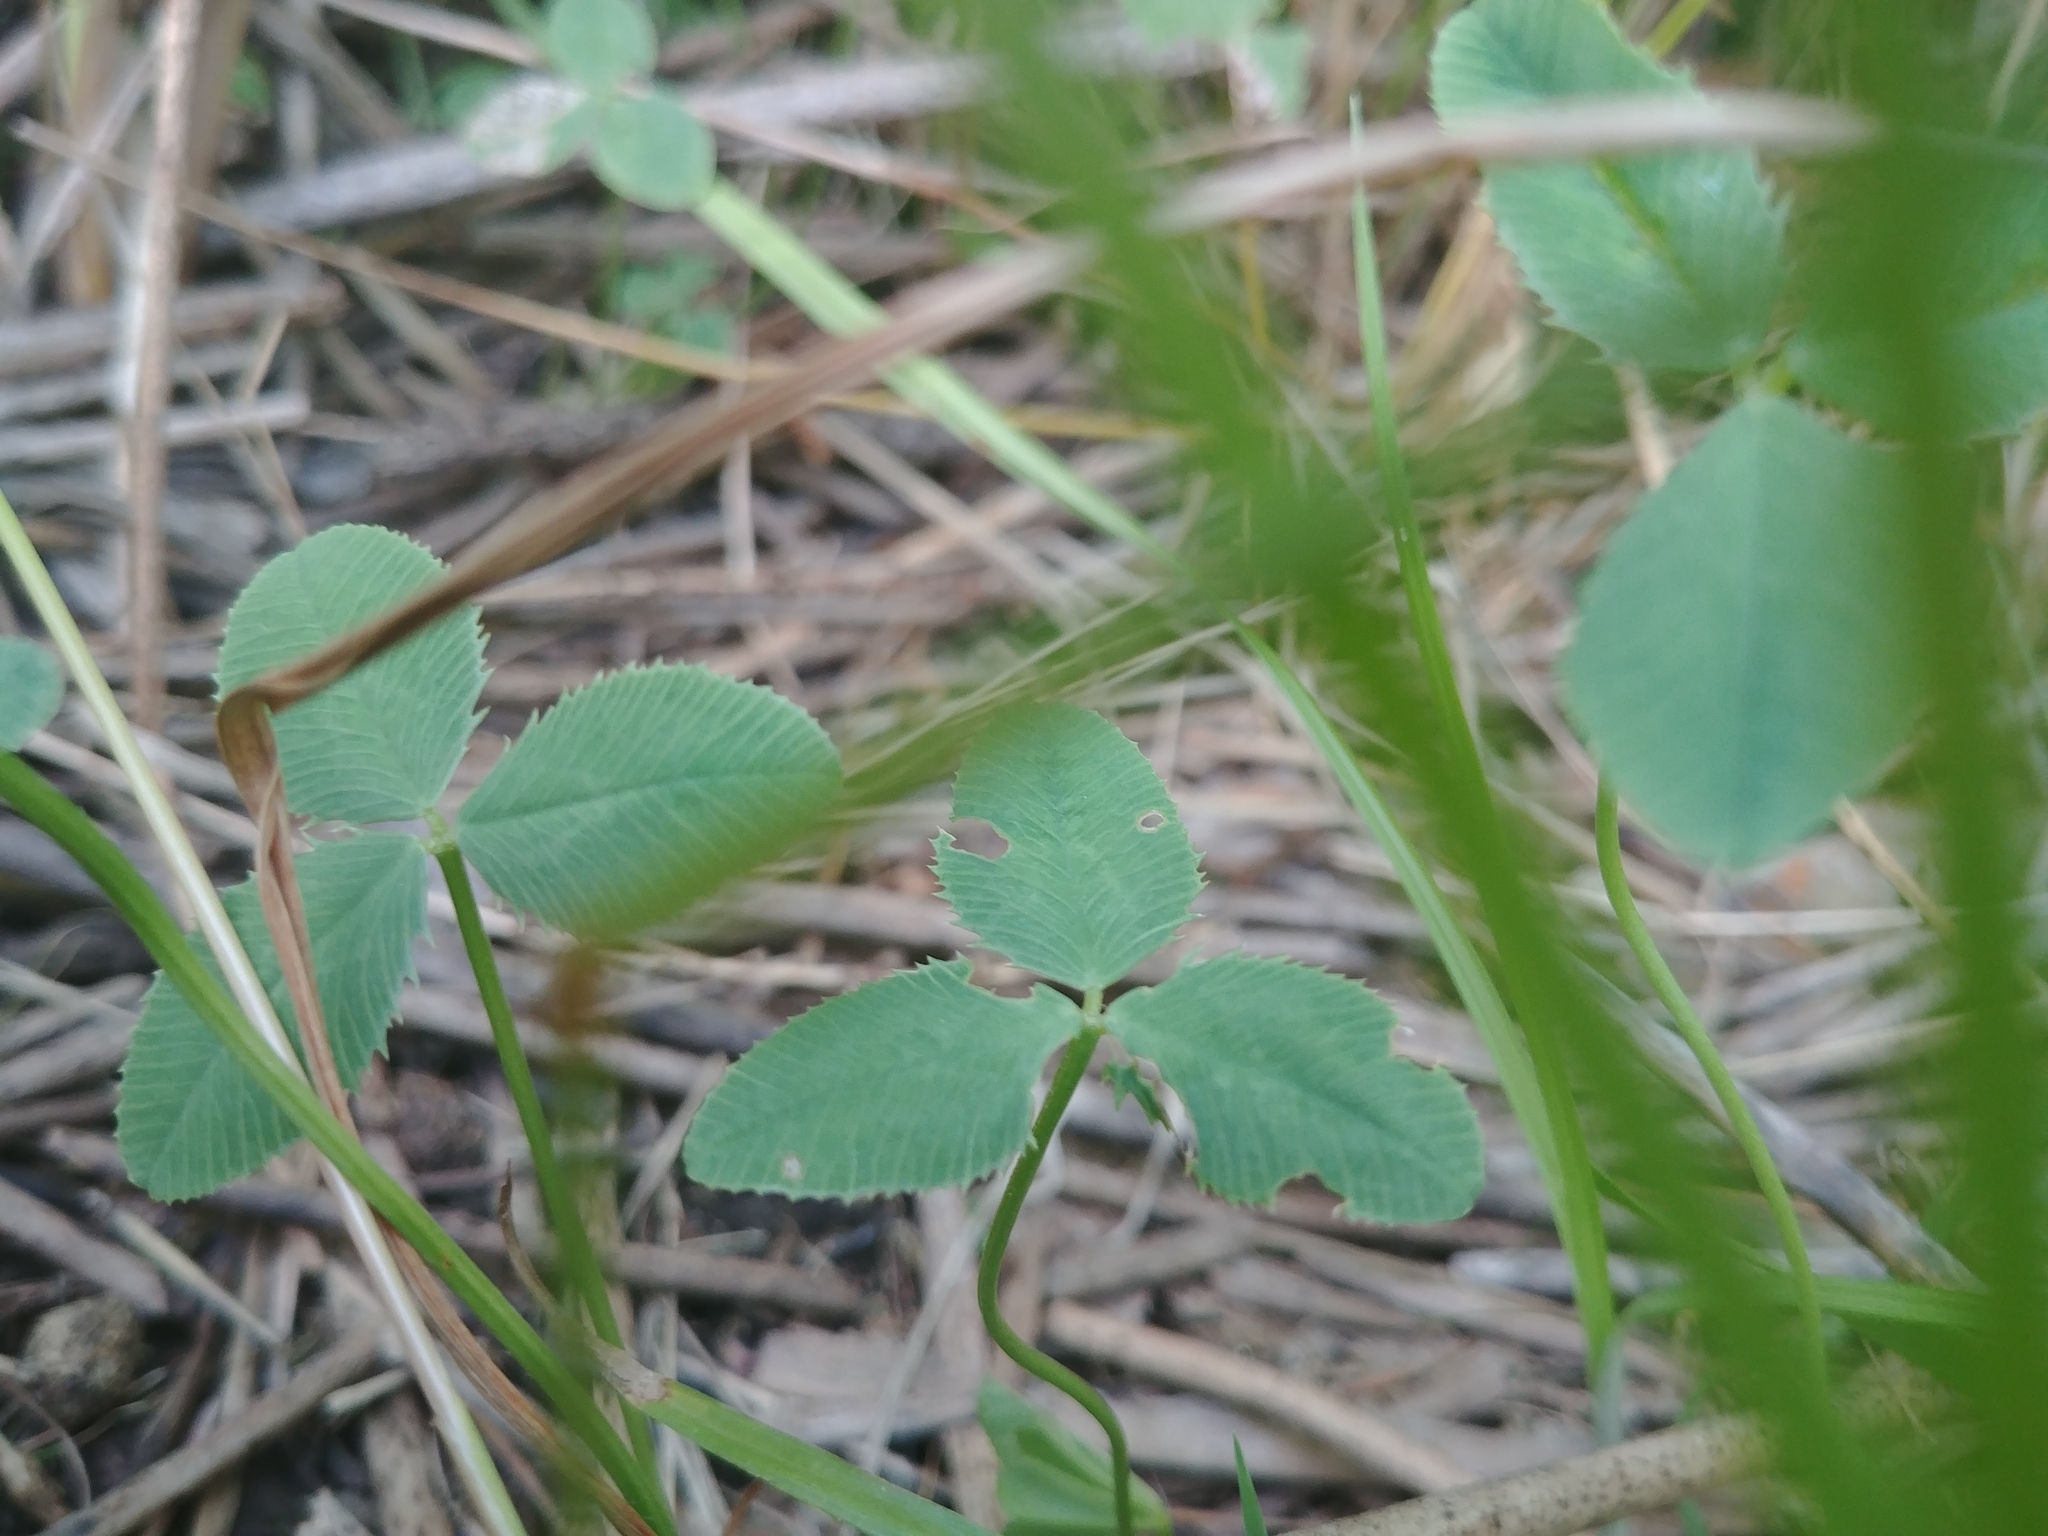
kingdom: Plantae
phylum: Tracheophyta
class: Magnoliopsida
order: Fabales
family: Fabaceae
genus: Trifolium
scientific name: Trifolium repens
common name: White clover
